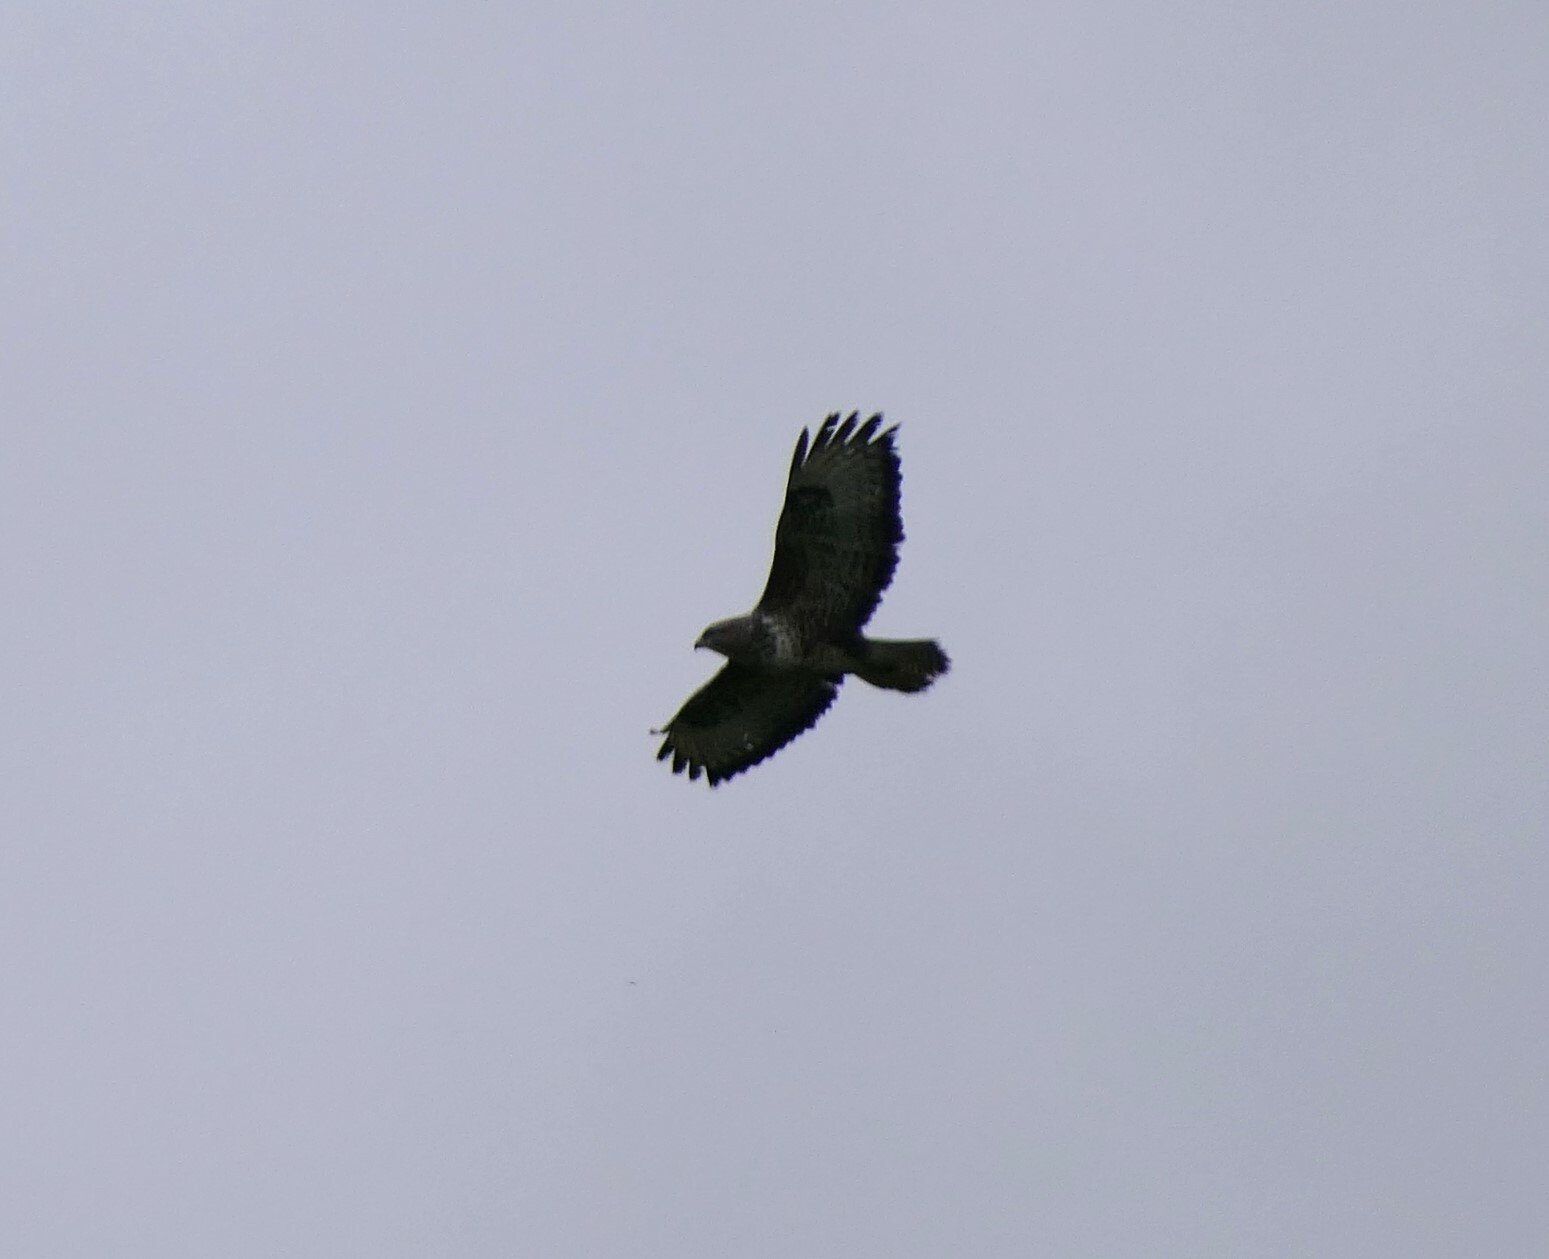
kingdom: Animalia
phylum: Chordata
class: Aves
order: Accipitriformes
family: Accipitridae
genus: Buteo
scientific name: Buteo buteo
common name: Common buzzard
